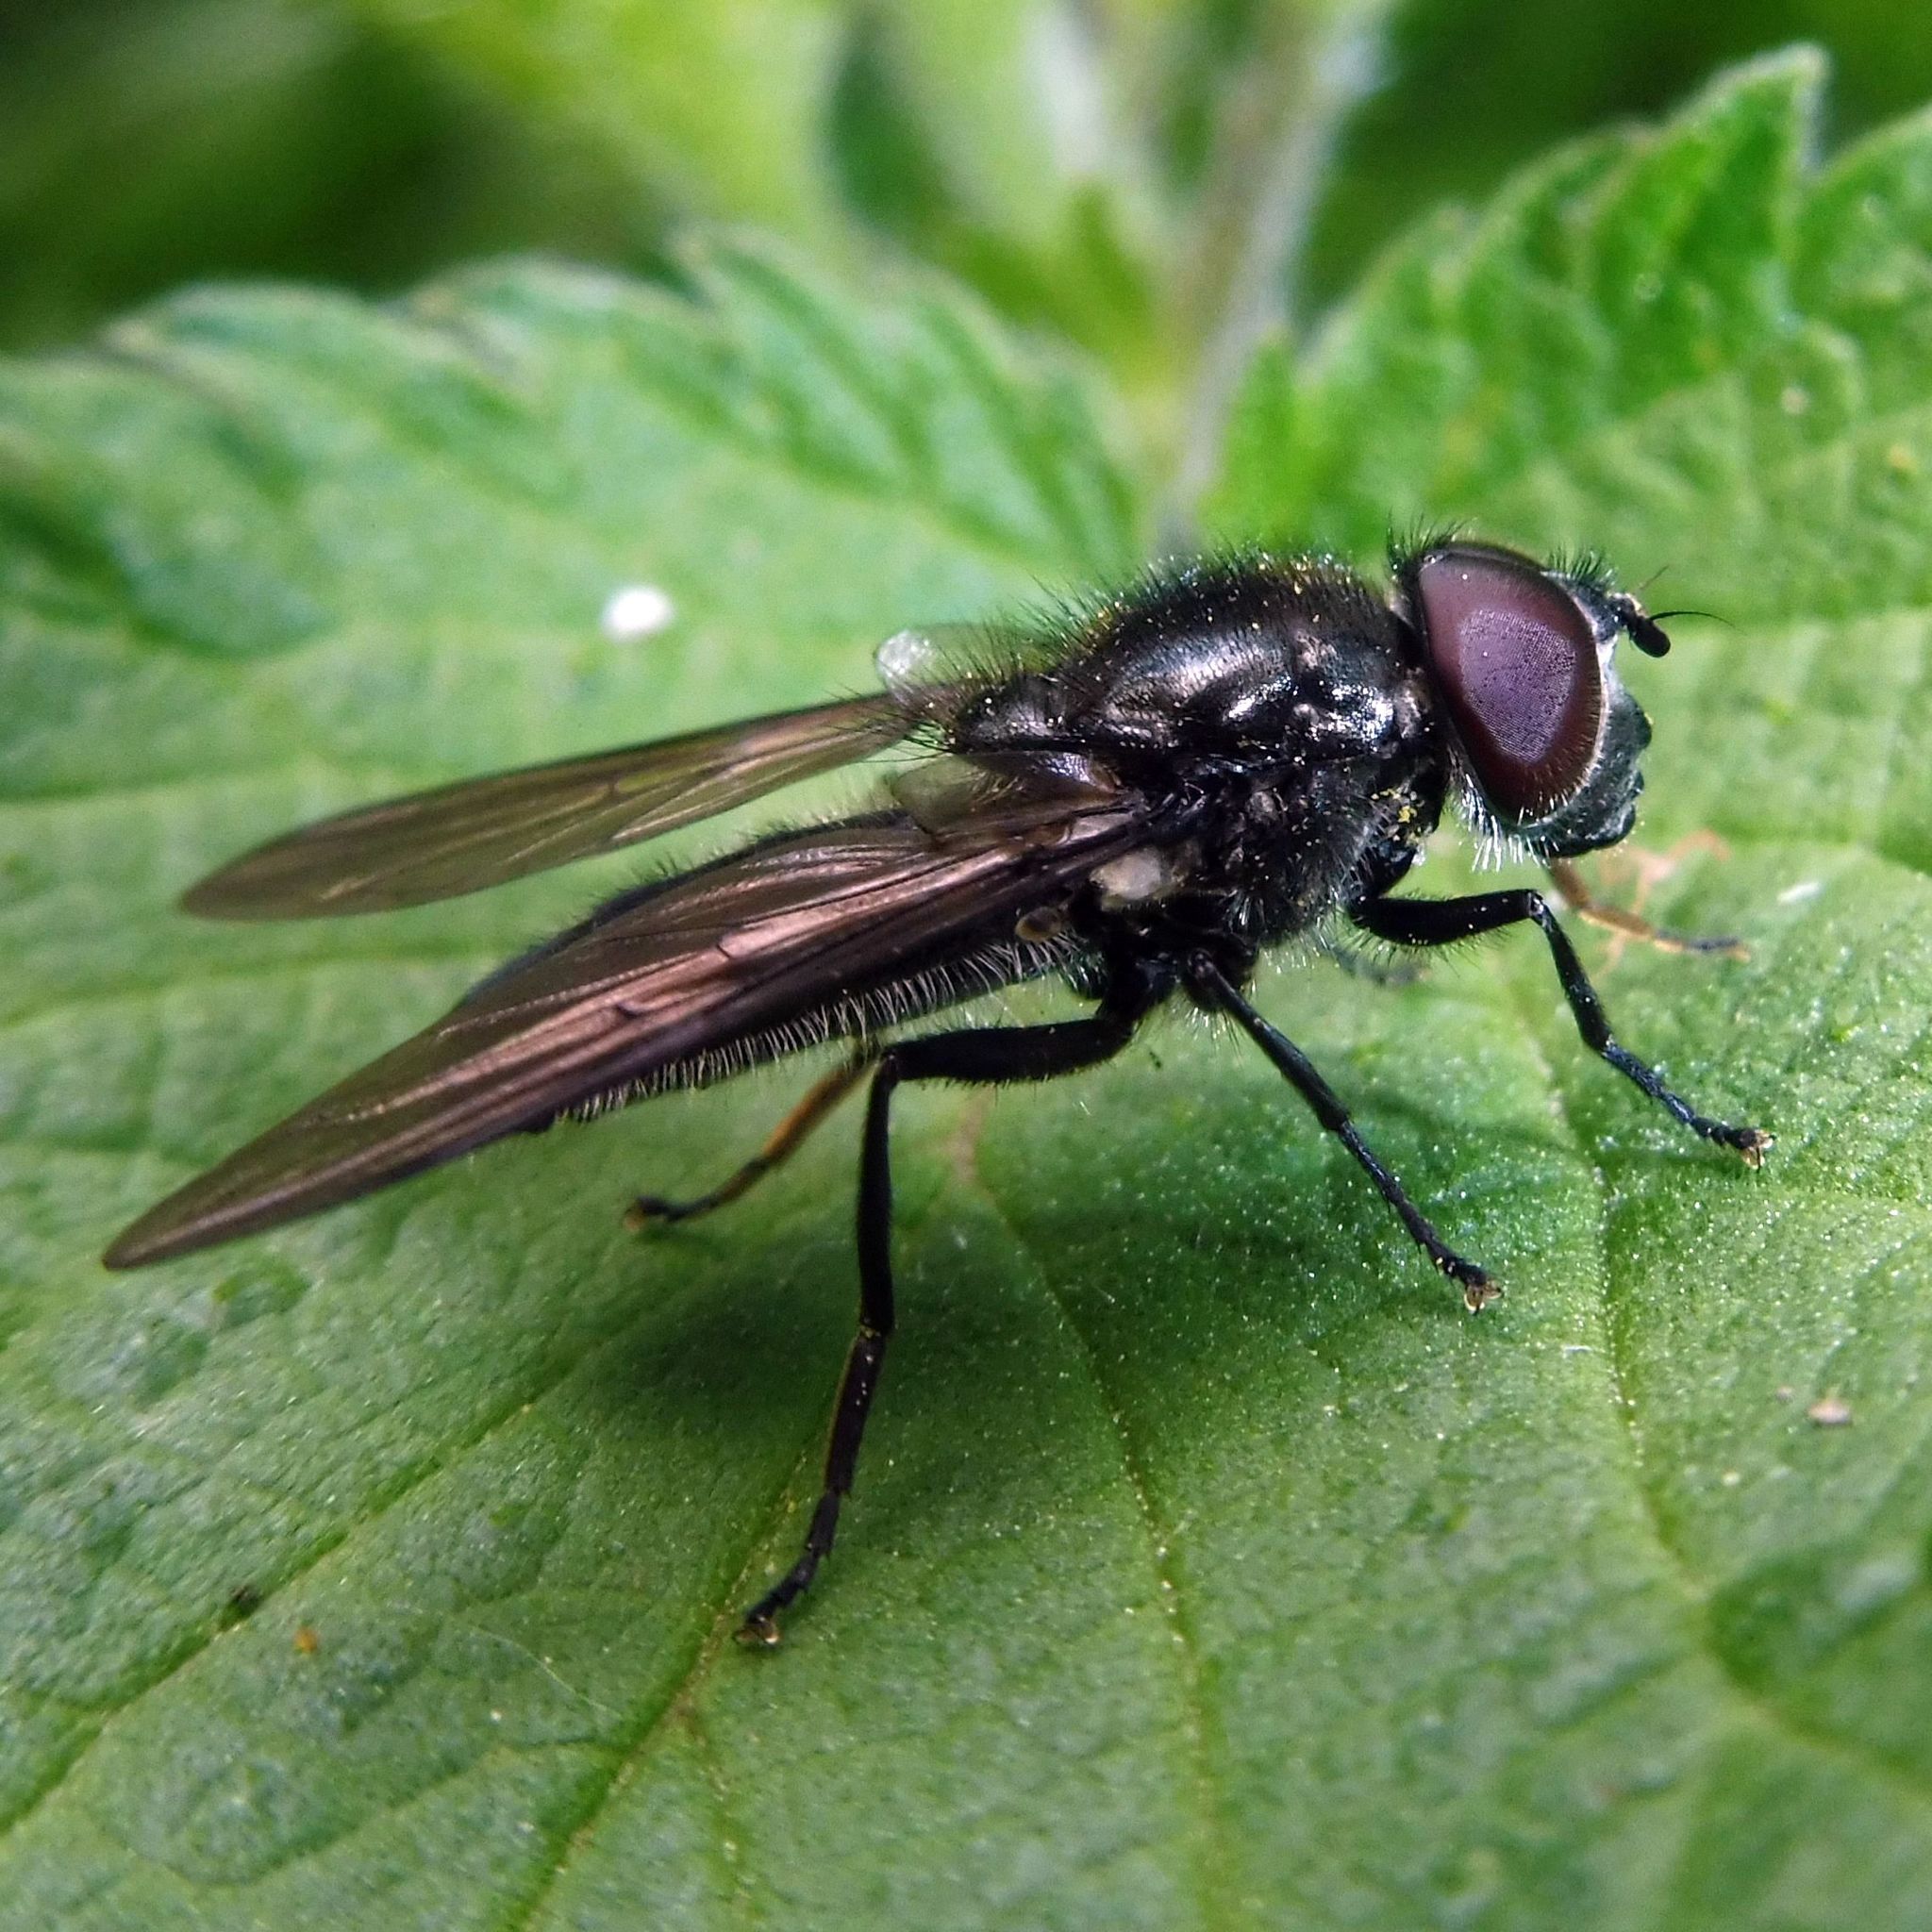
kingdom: Animalia
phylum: Arthropoda
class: Insecta
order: Diptera
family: Syrphidae
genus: Cheilosia
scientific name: Cheilosia variabilis
